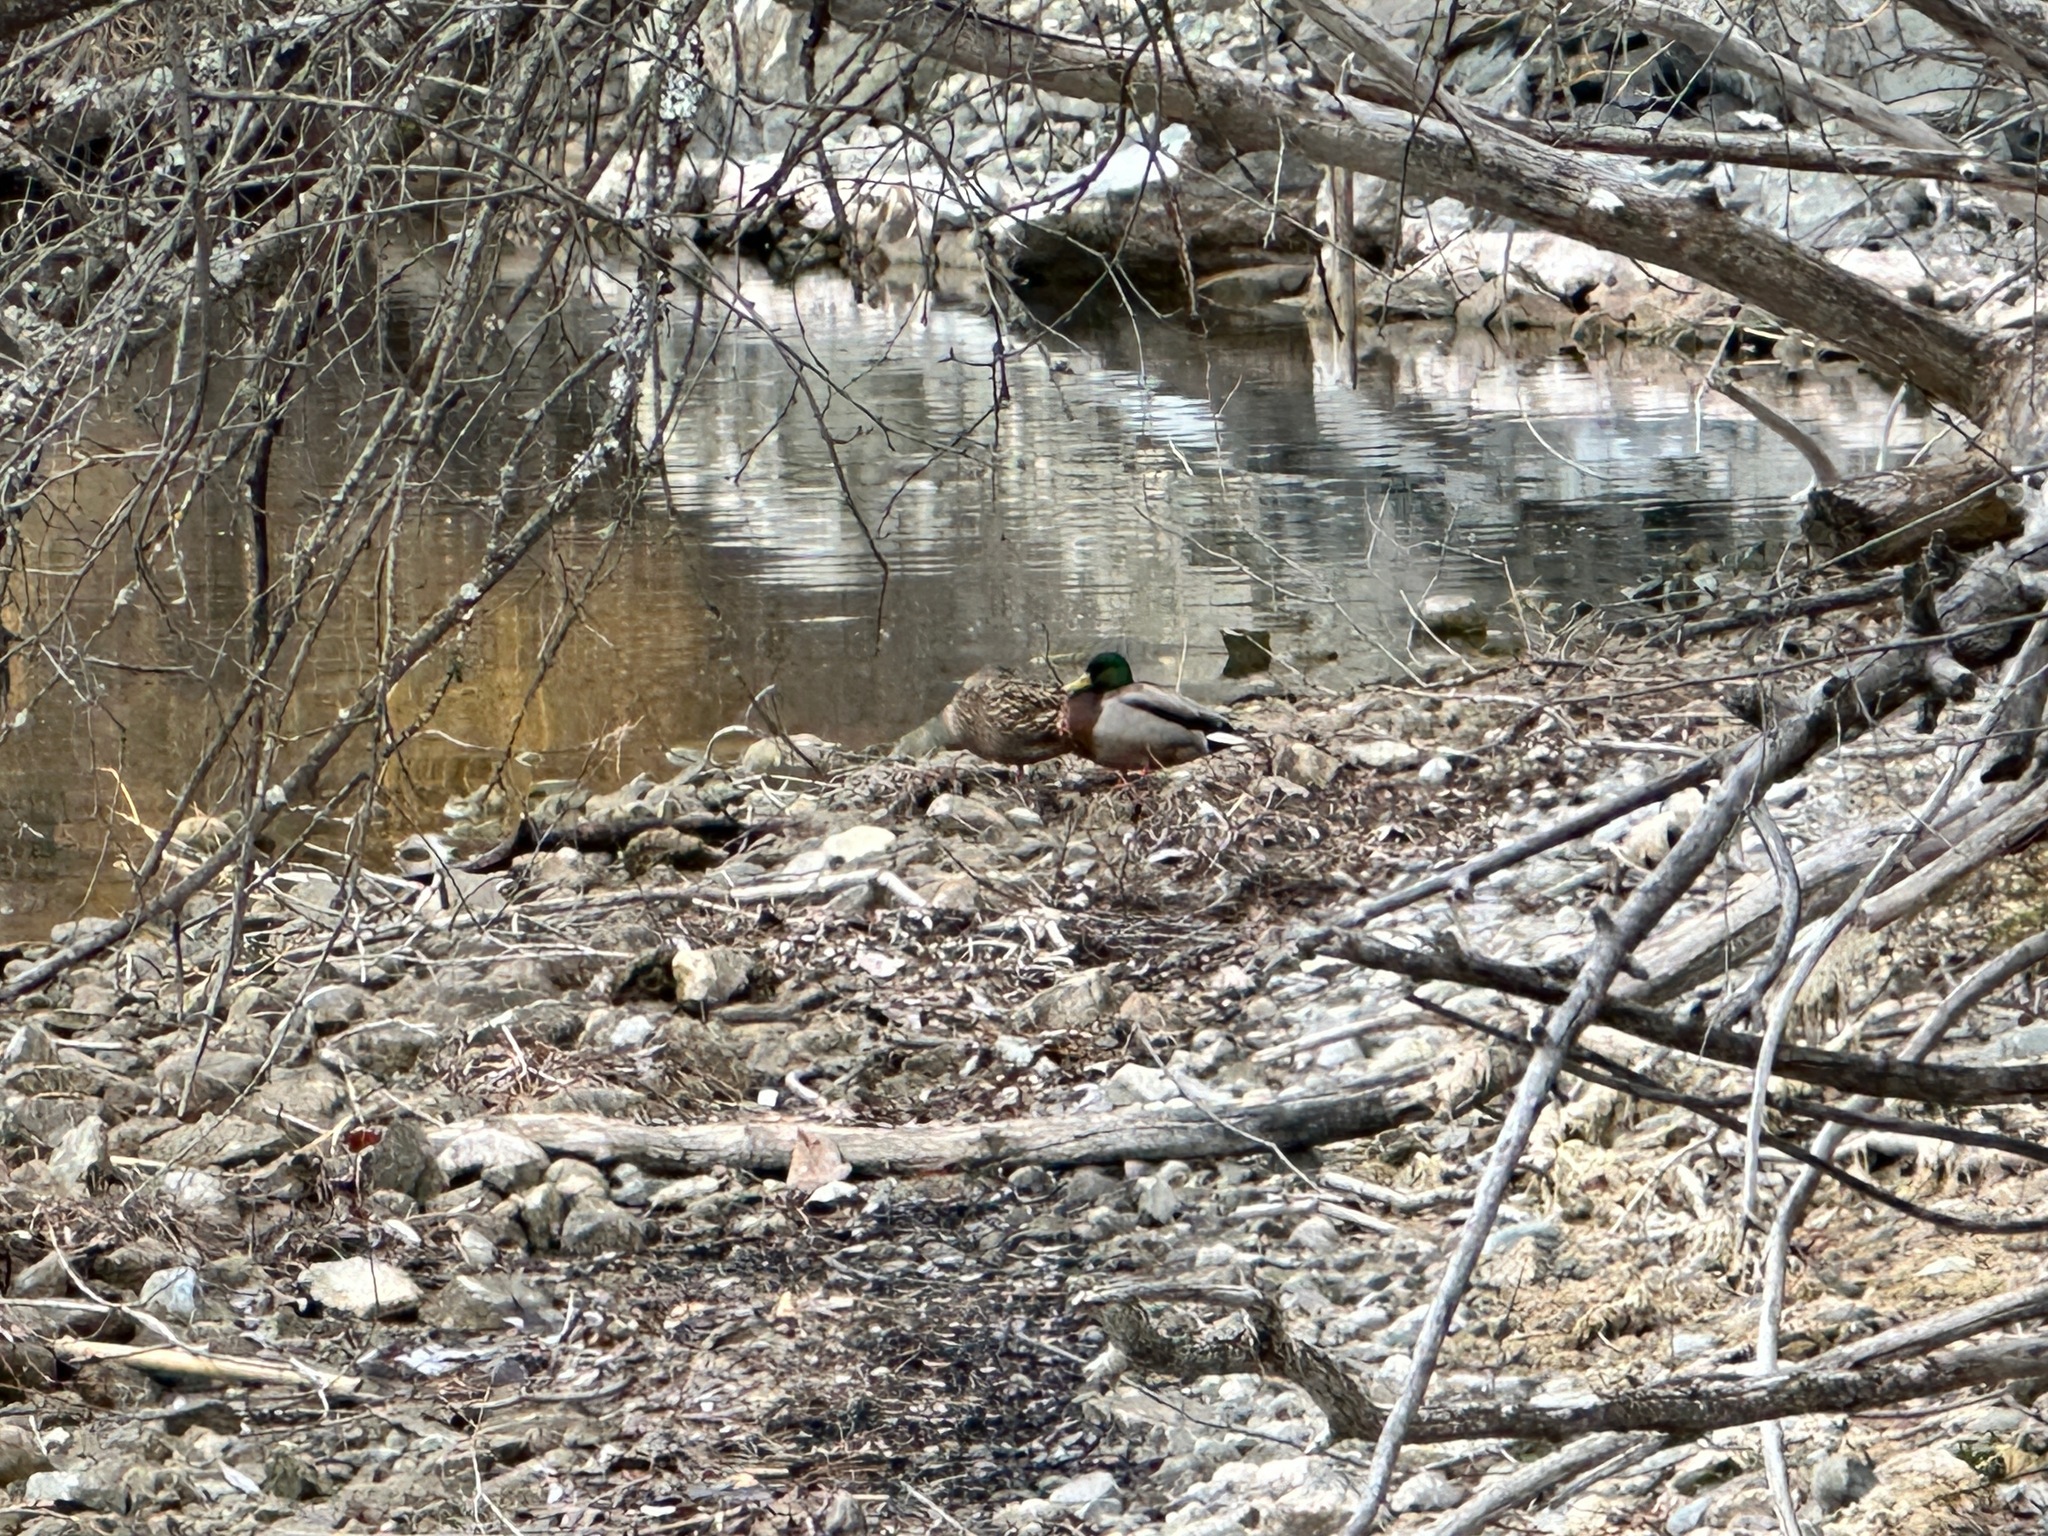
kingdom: Animalia
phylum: Chordata
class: Aves
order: Anseriformes
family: Anatidae
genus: Anas
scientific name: Anas platyrhynchos
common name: Mallard
